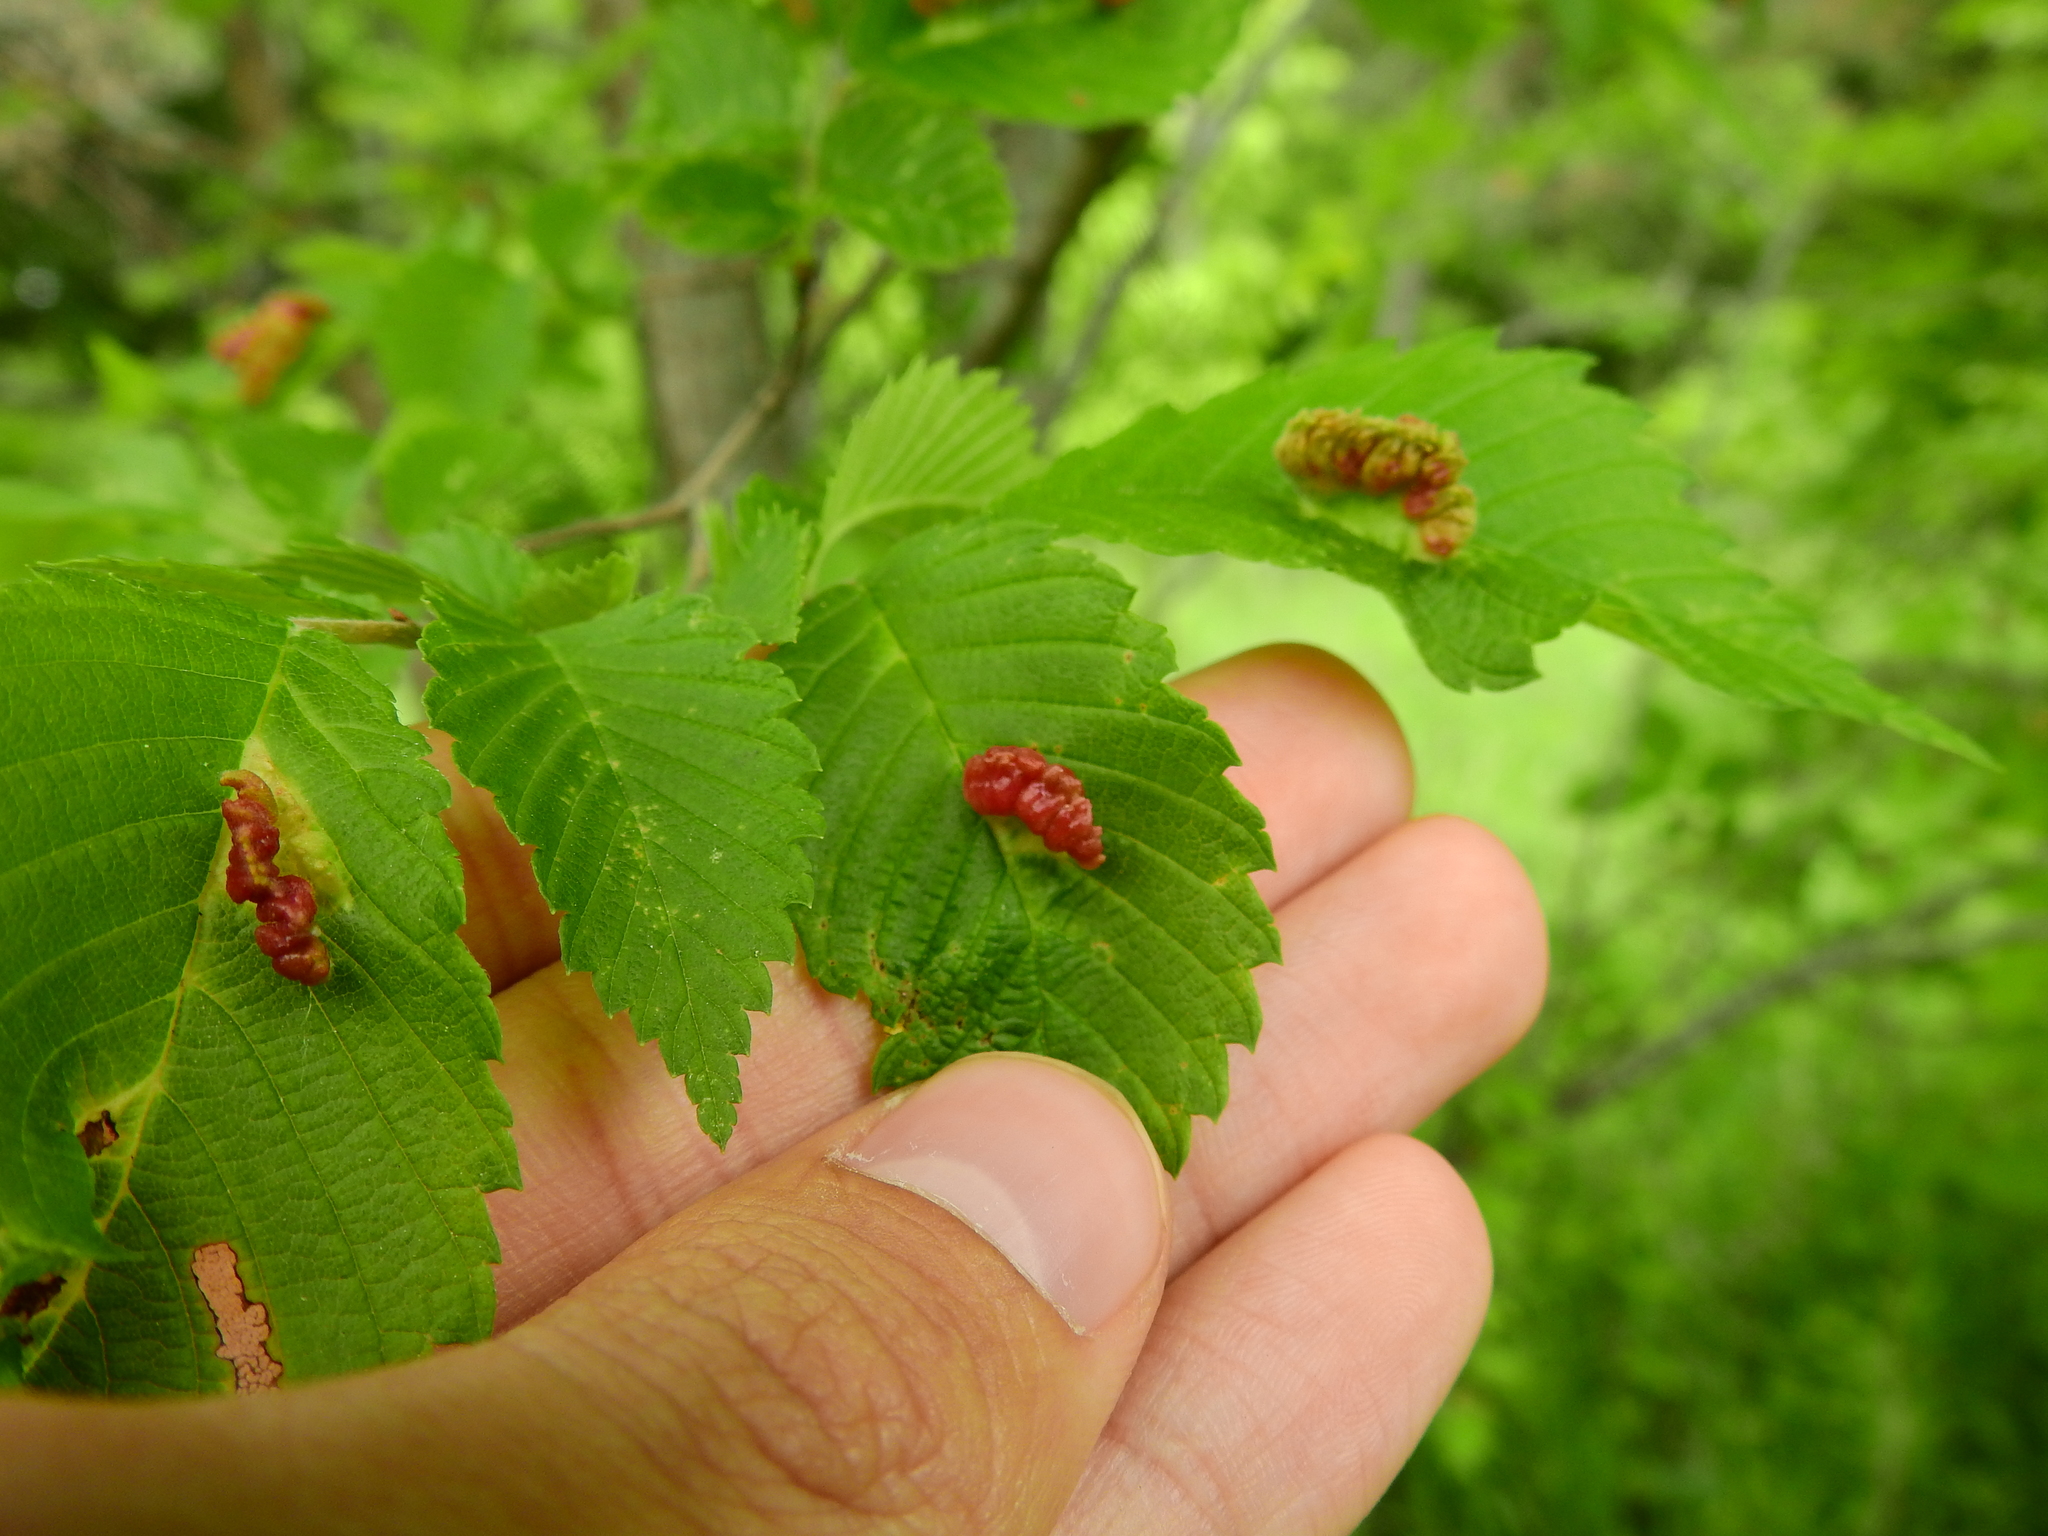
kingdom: Animalia
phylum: Arthropoda
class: Insecta
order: Hemiptera
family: Aphididae
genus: Colopha
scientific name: Colopha ulmicola
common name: Elm cockscombgall aphid
